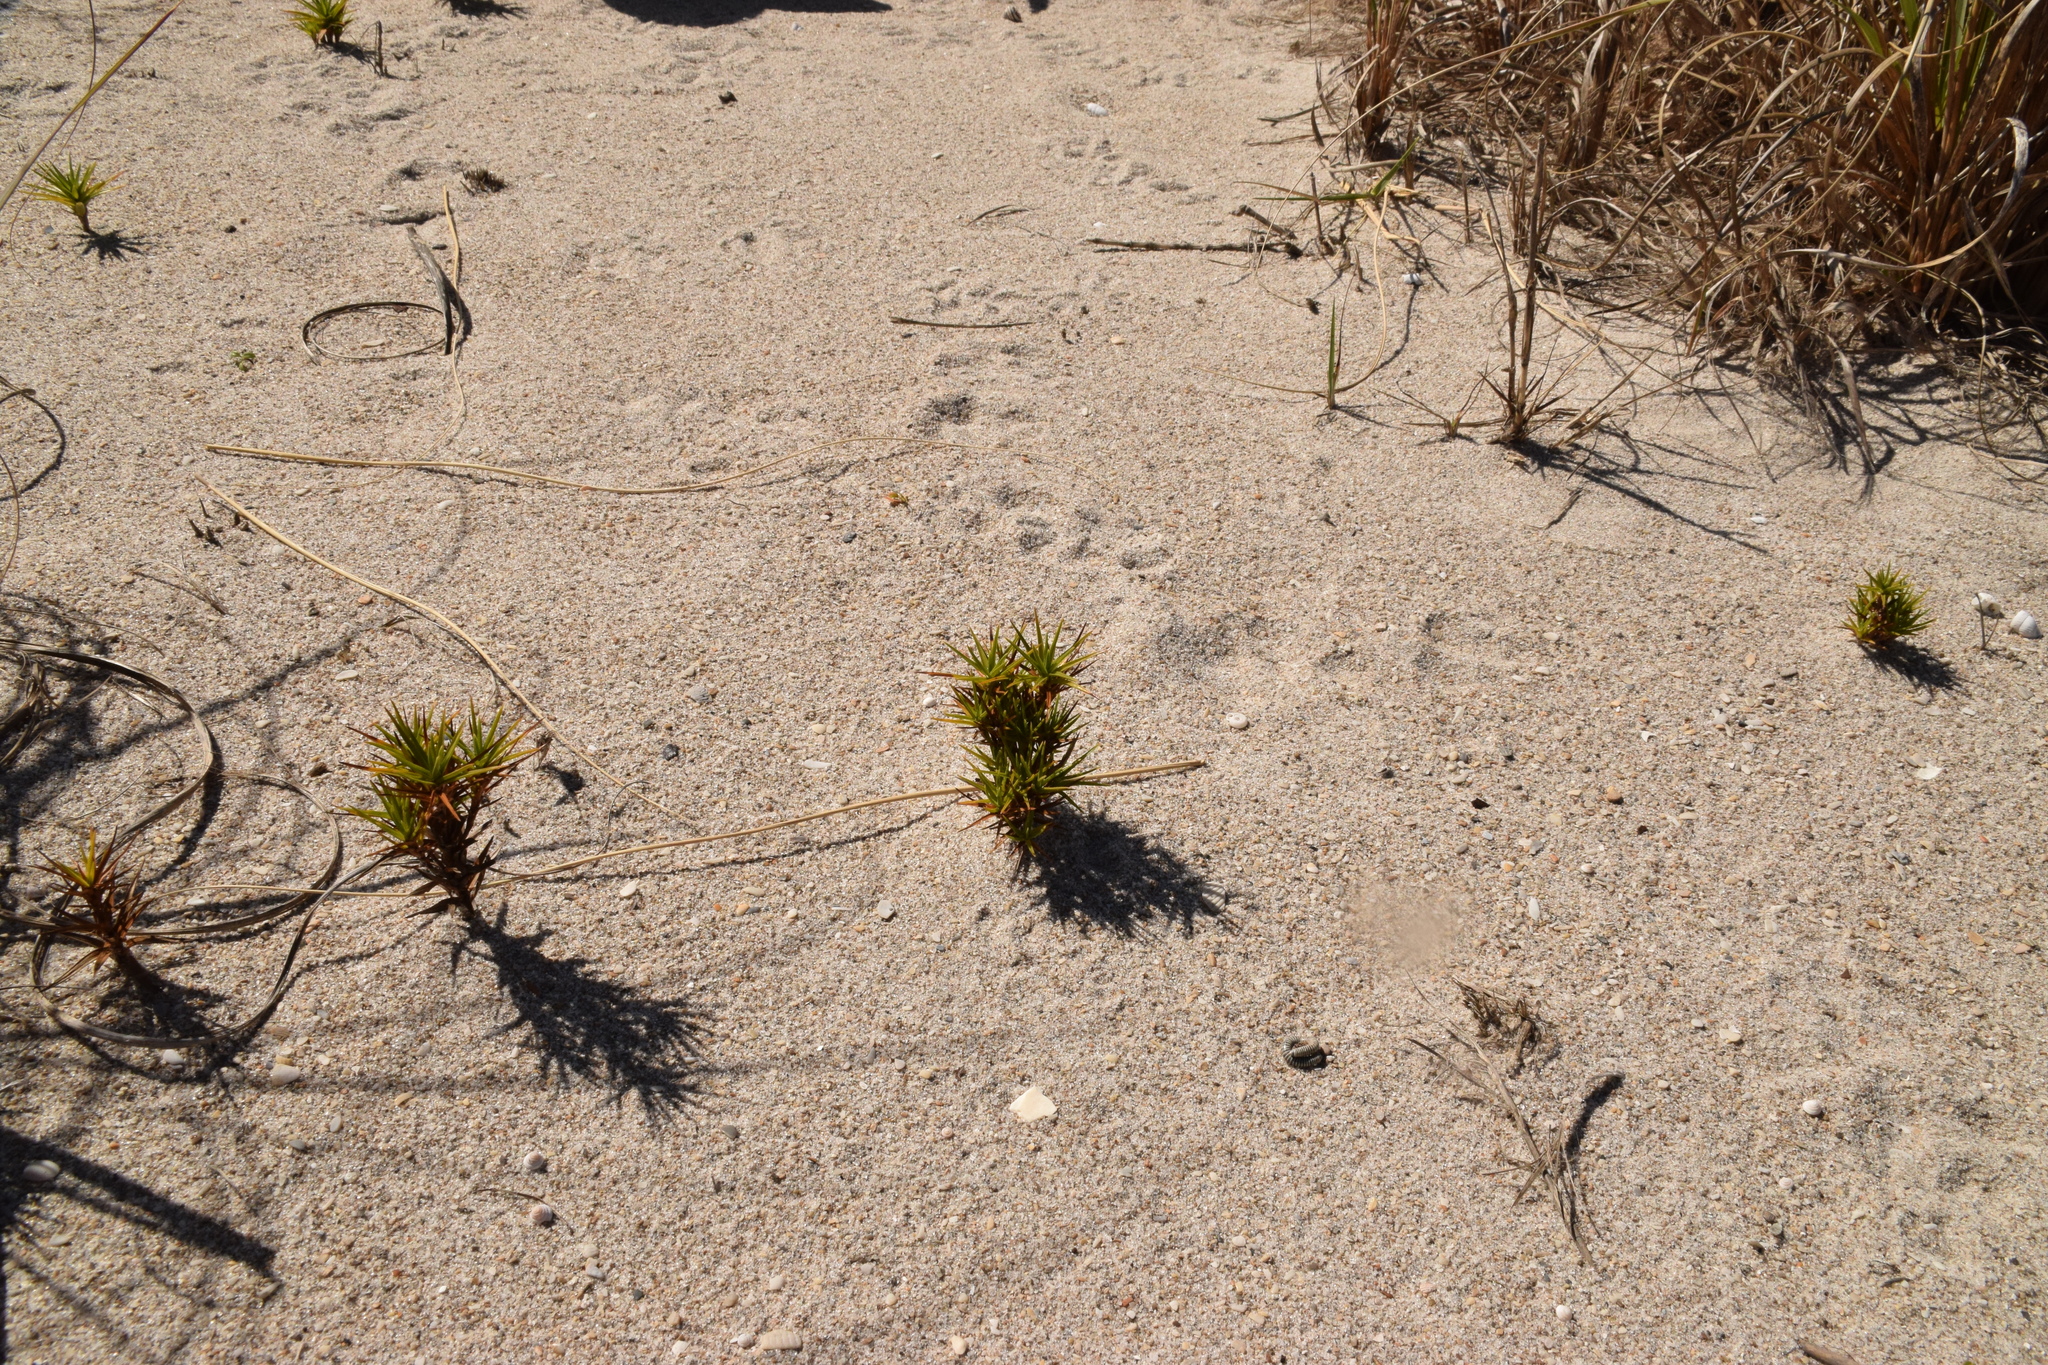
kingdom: Plantae
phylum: Tracheophyta
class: Liliopsida
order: Poales
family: Cyperaceae
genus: Cyperus
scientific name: Cyperus pedunculatus
